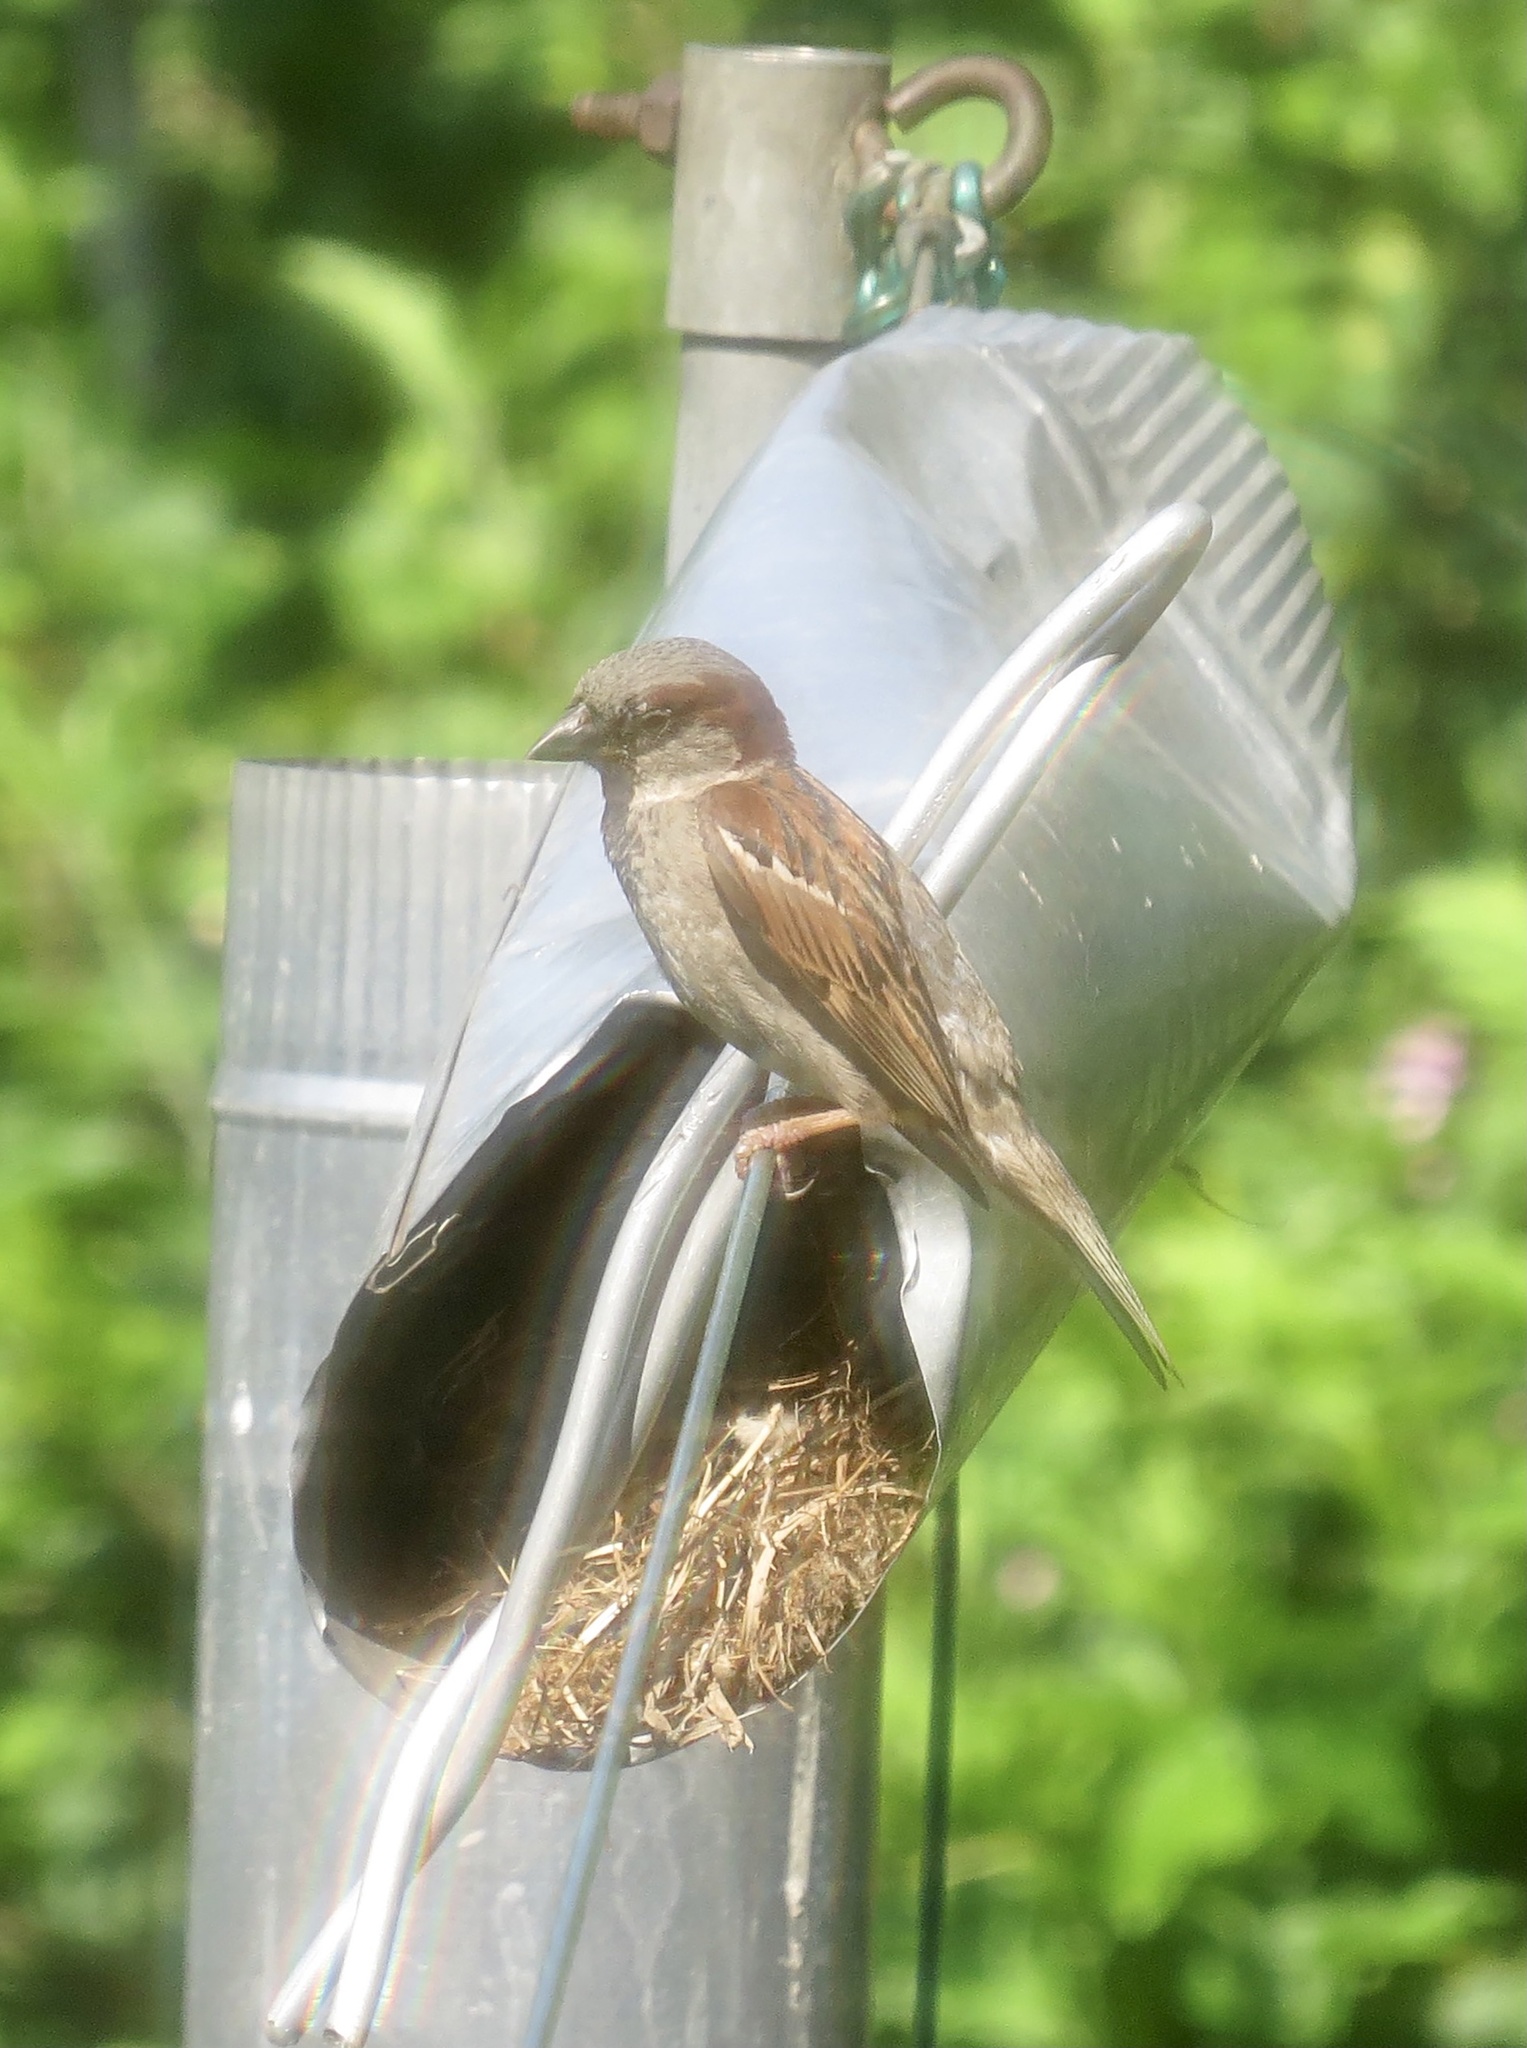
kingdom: Animalia
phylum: Chordata
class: Aves
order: Passeriformes
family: Passeridae
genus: Passer
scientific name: Passer domesticus
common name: House sparrow
